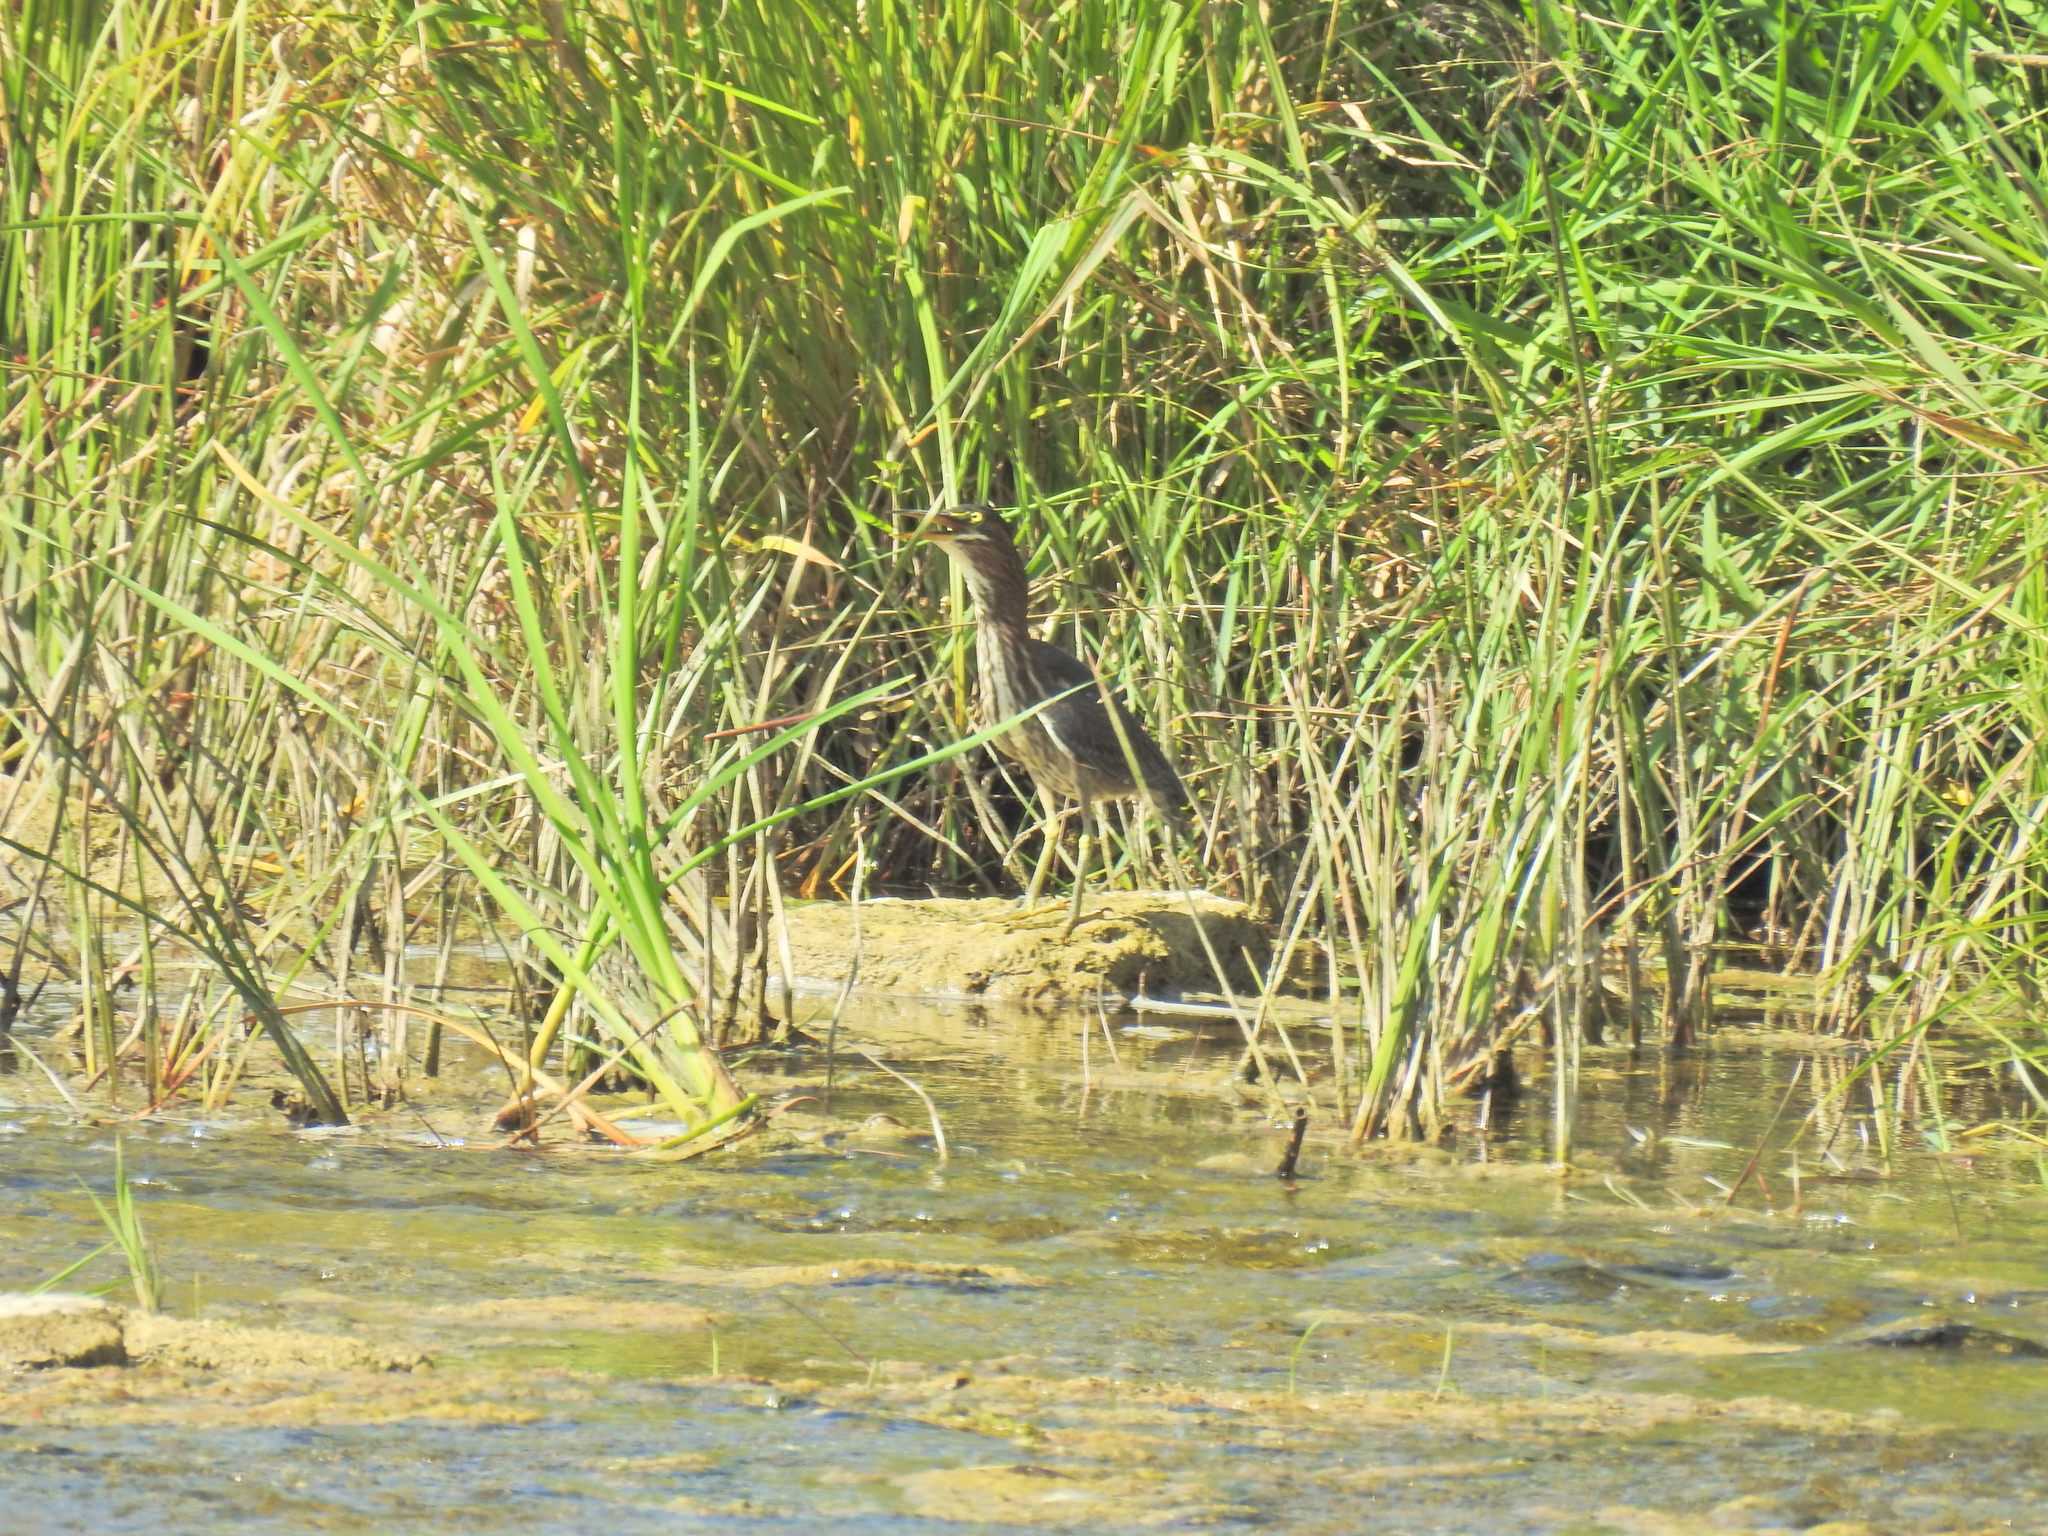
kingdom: Animalia
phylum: Chordata
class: Aves
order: Pelecaniformes
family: Ardeidae
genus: Butorides
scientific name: Butorides virescens
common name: Green heron
